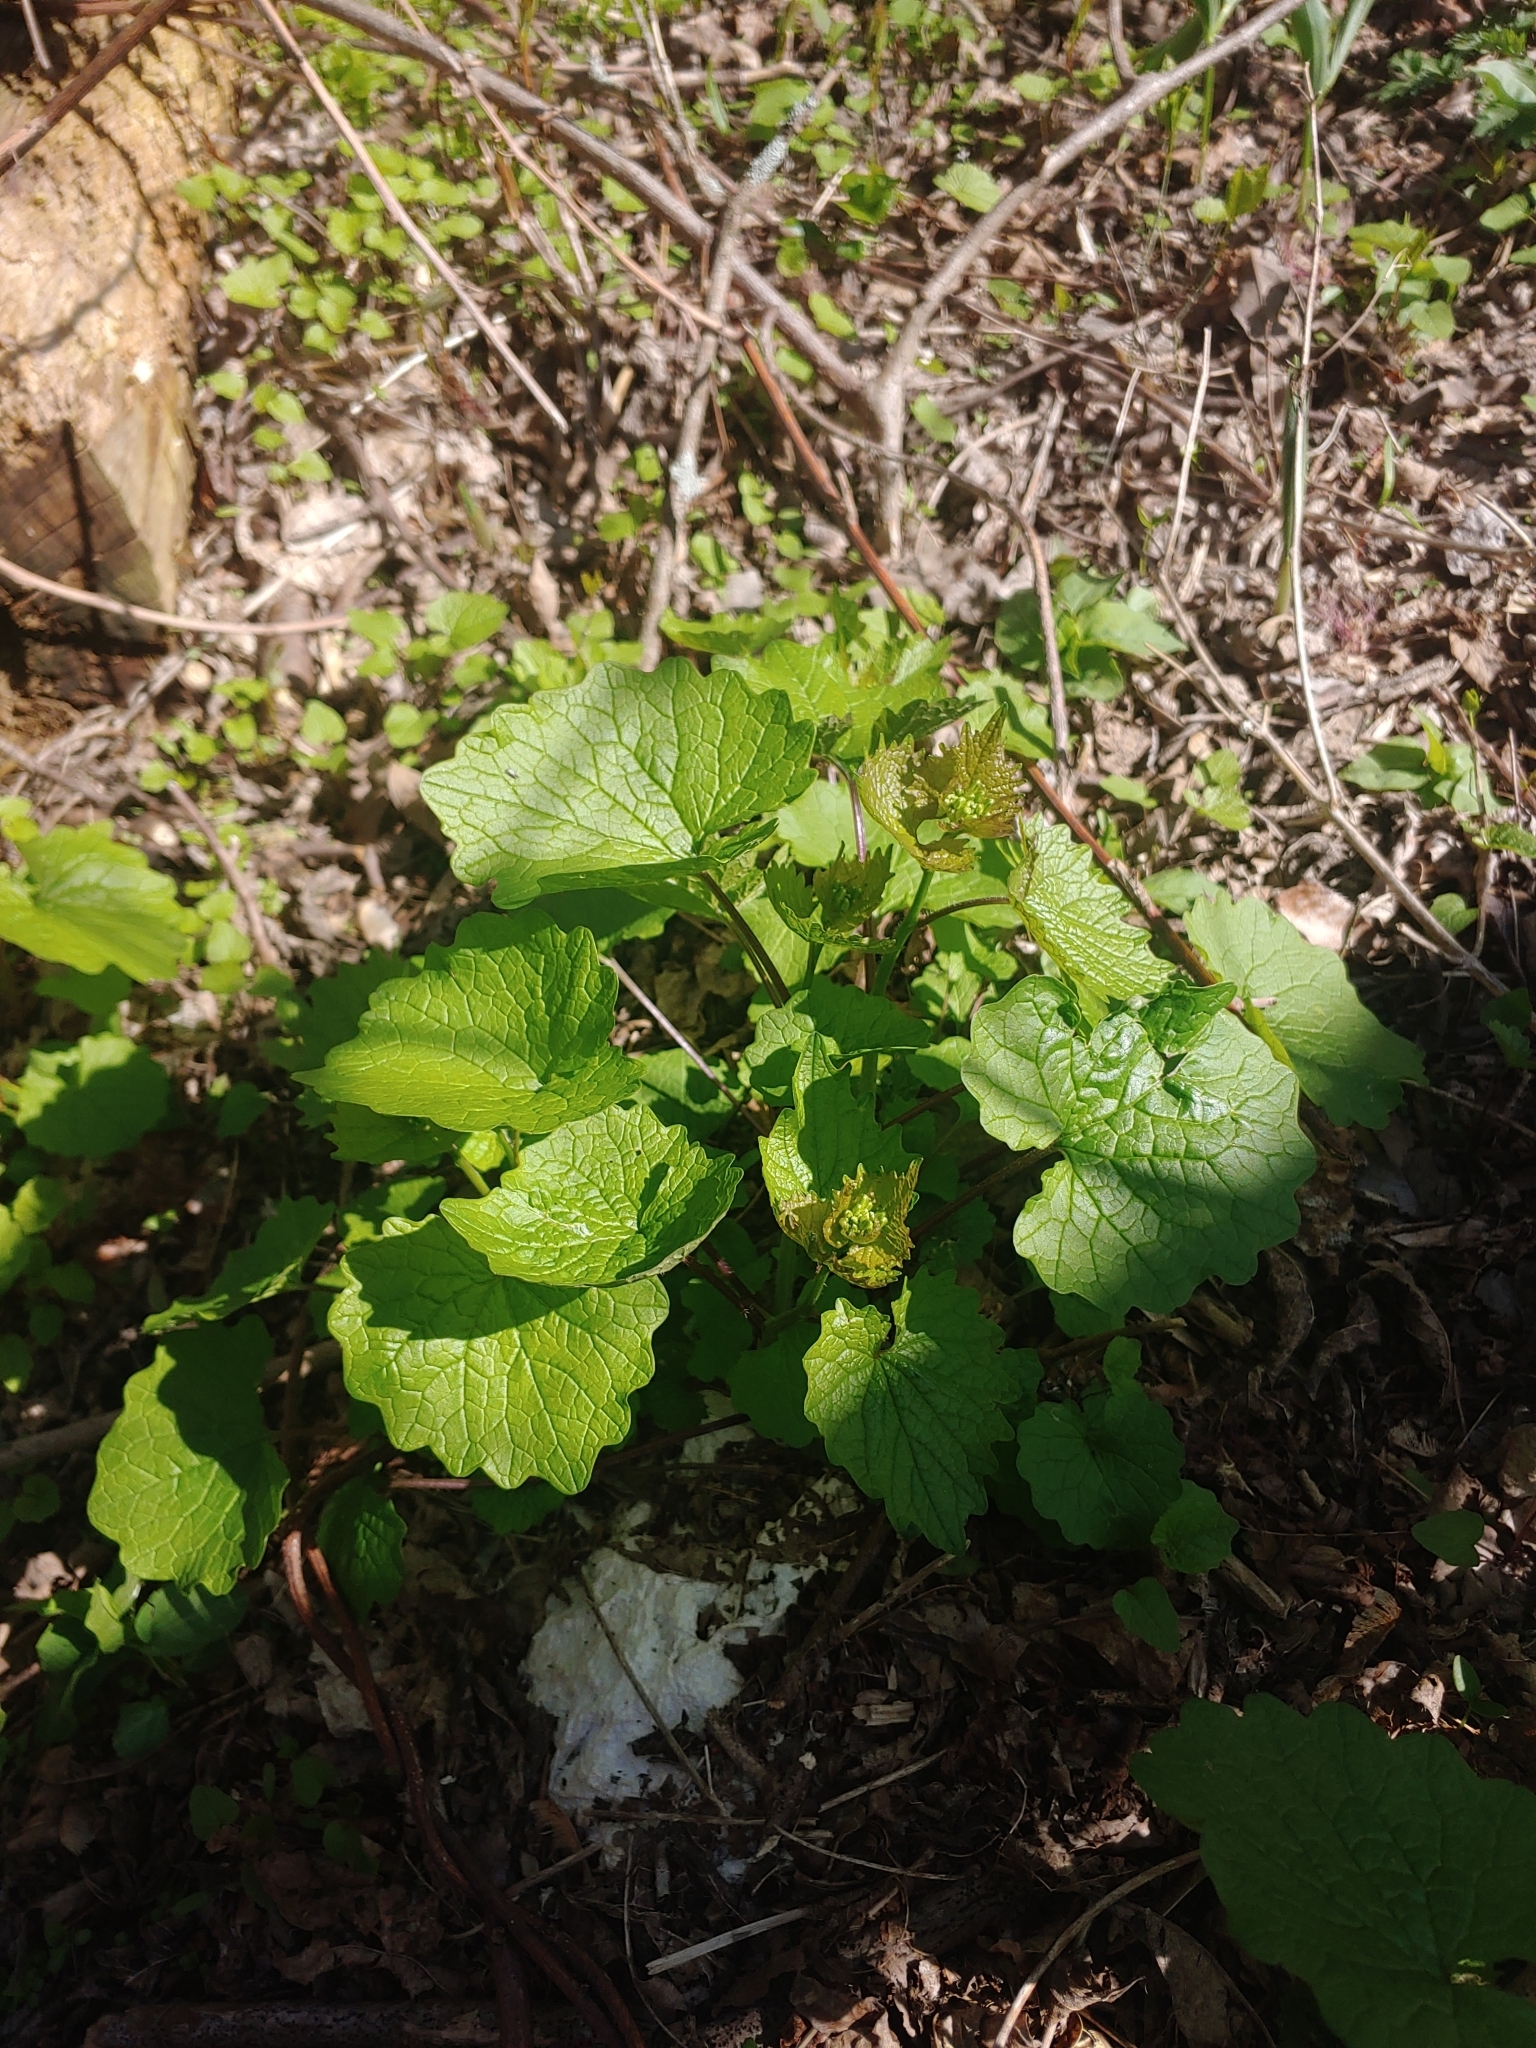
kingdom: Plantae
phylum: Tracheophyta
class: Magnoliopsida
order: Brassicales
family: Brassicaceae
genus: Alliaria
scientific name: Alliaria petiolata
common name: Garlic mustard
